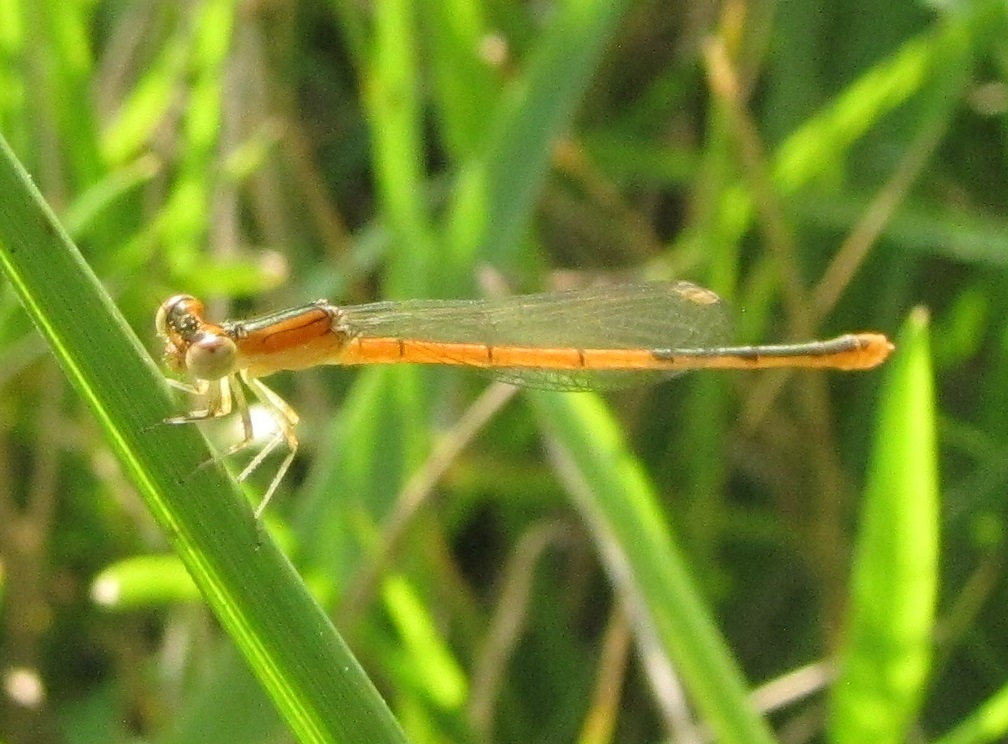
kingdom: Animalia
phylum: Arthropoda
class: Insecta
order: Odonata
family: Coenagrionidae
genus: Ischnura
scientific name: Ischnura hastata
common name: Citrine forktail
